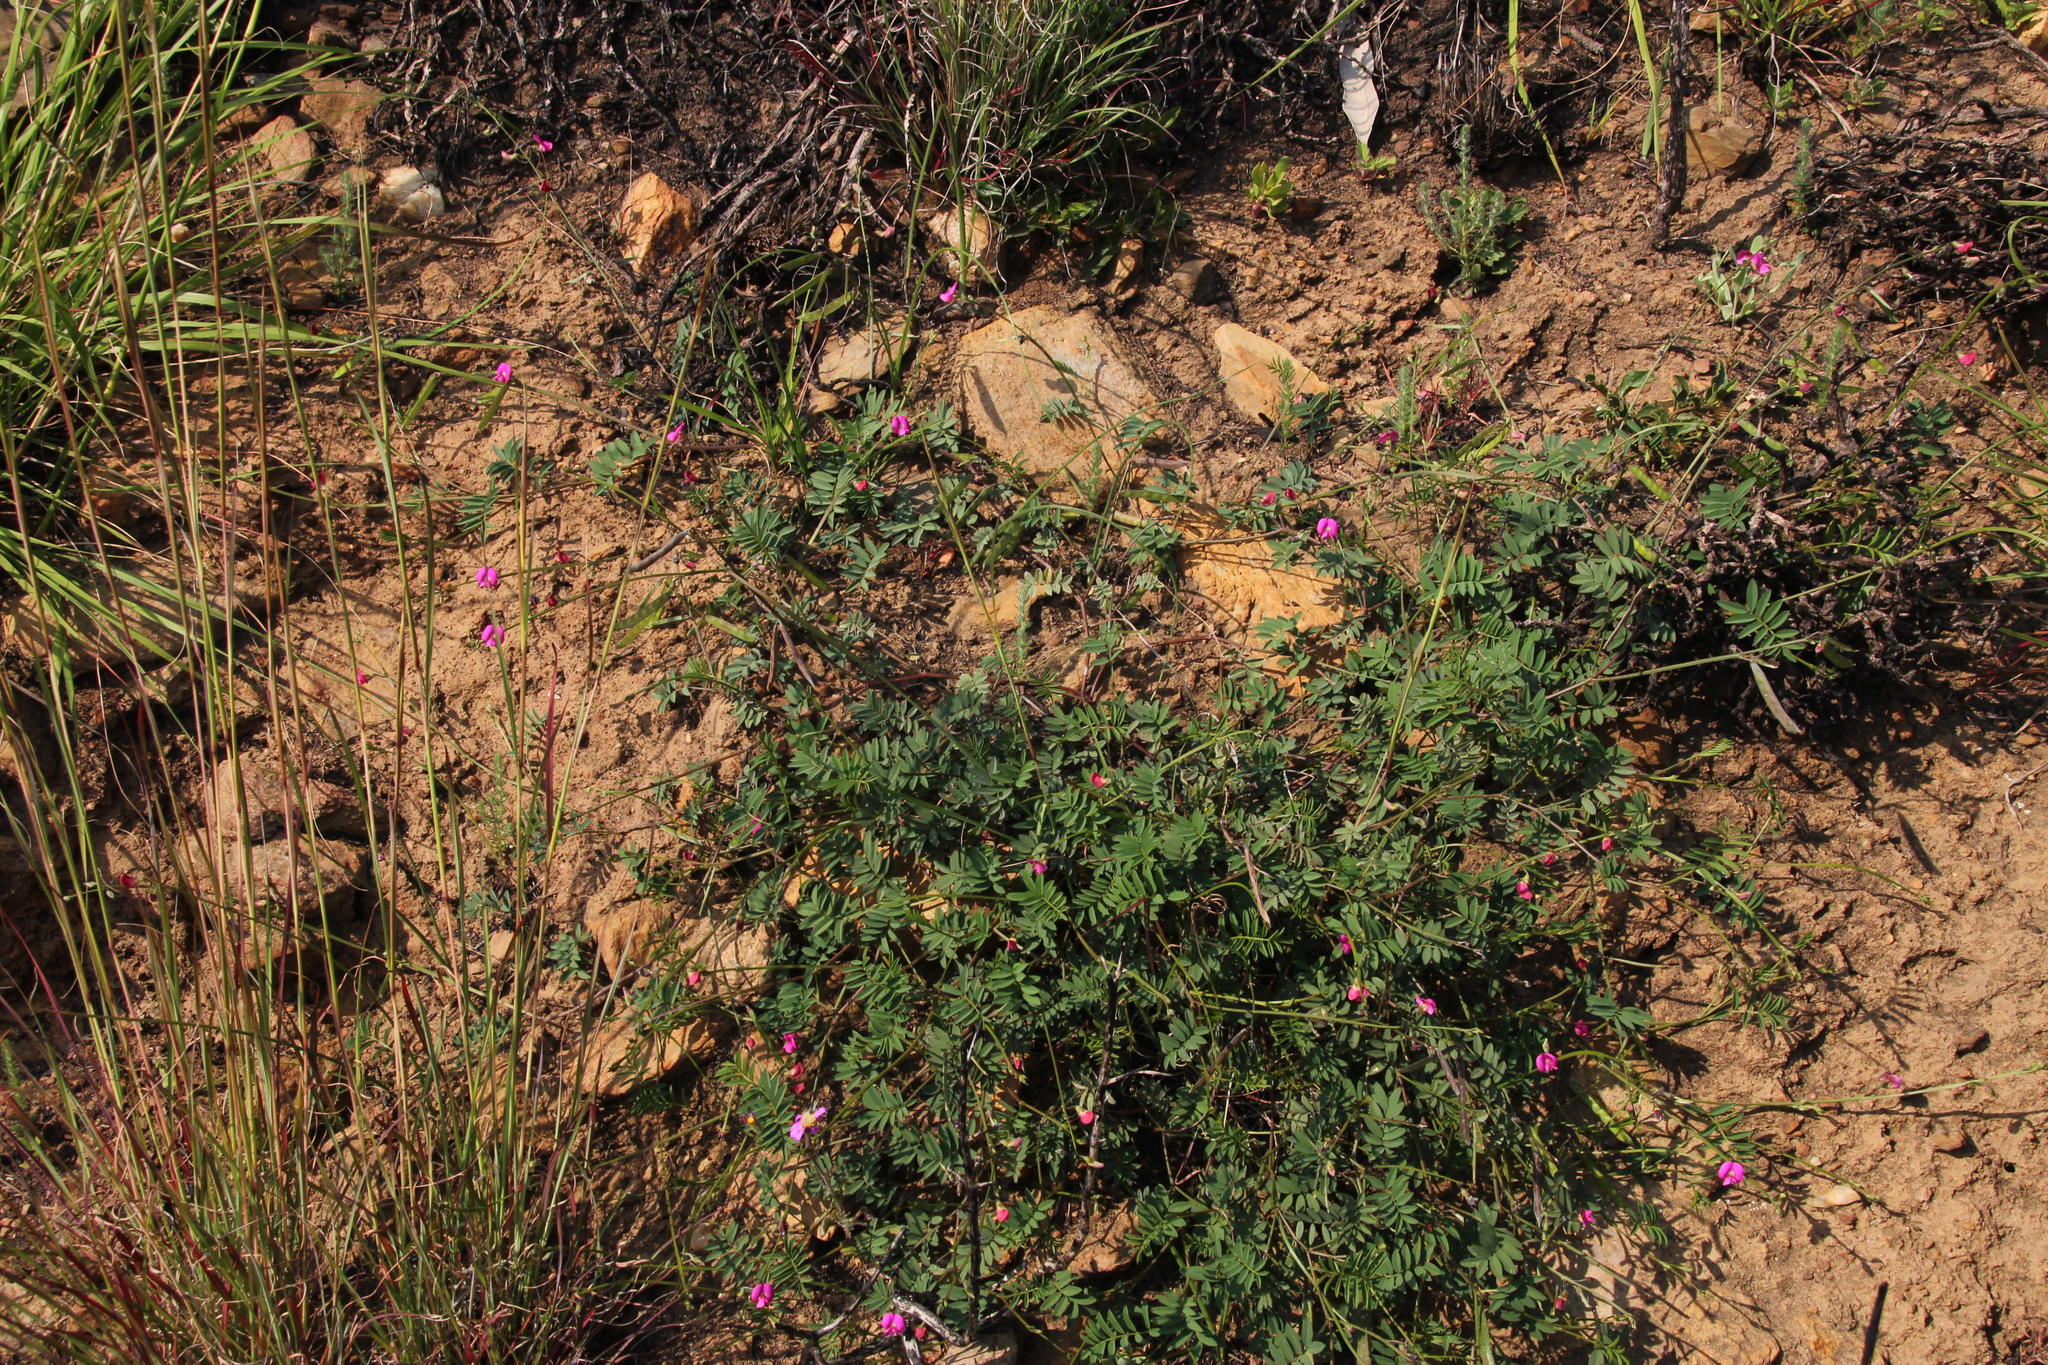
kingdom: Plantae
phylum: Tracheophyta
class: Magnoliopsida
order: Fabales
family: Fabaceae
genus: Tephrosia
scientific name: Tephrosia capensis
